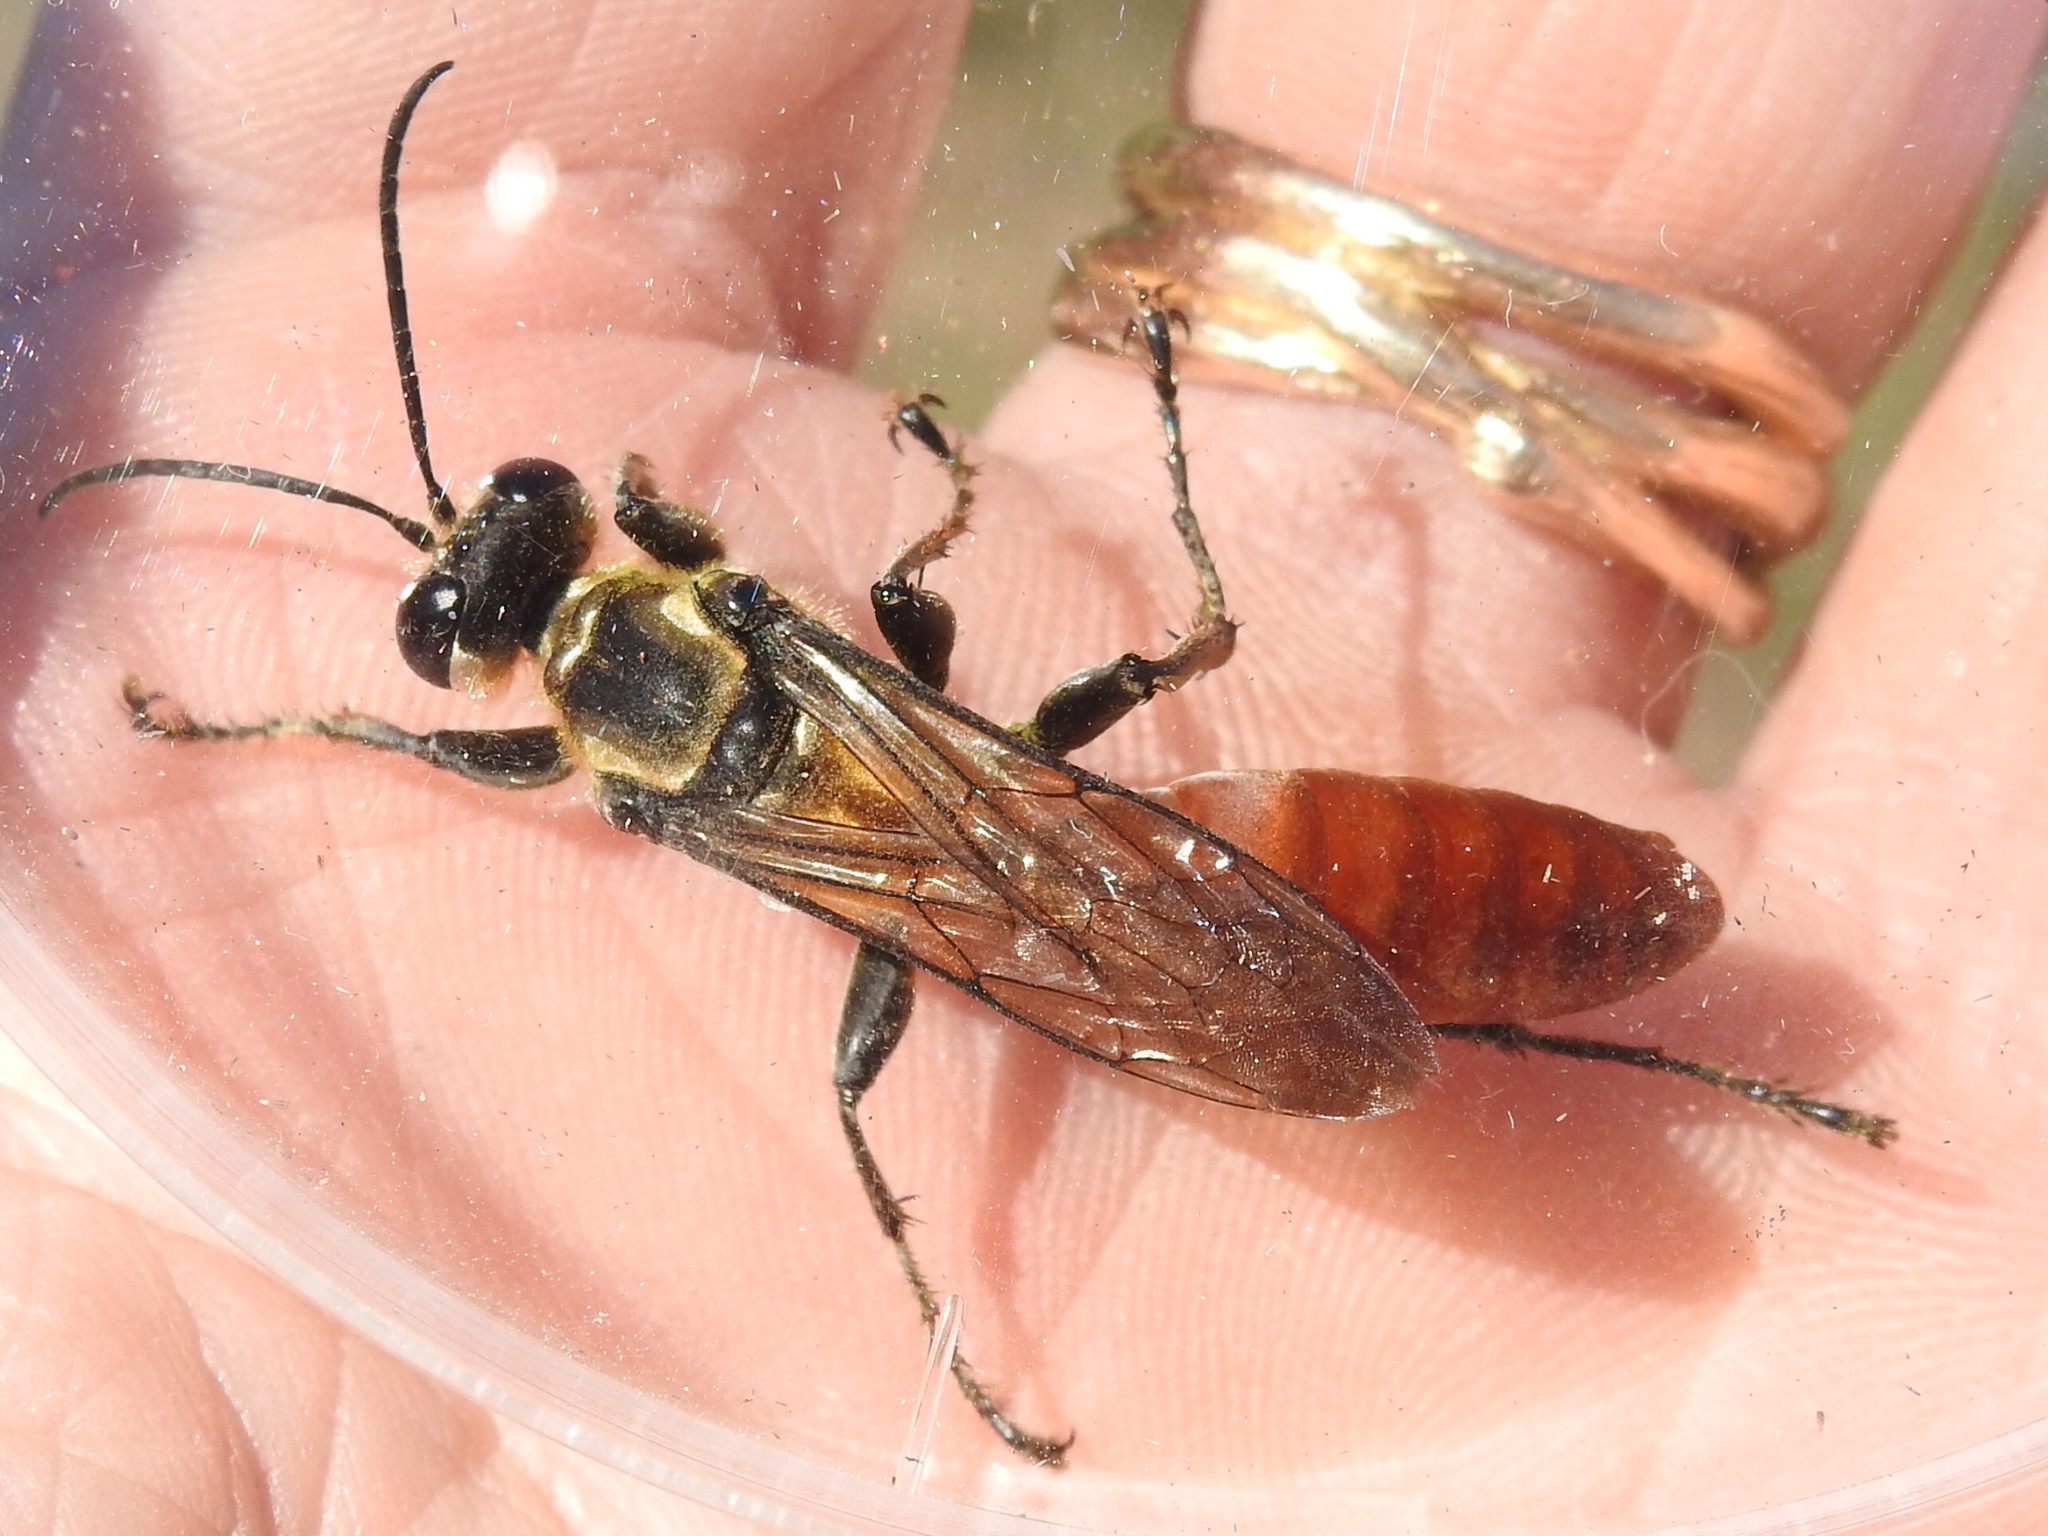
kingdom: Animalia
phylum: Arthropoda
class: Insecta
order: Hymenoptera
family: Sphecidae
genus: Sphex
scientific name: Sphex habenus
